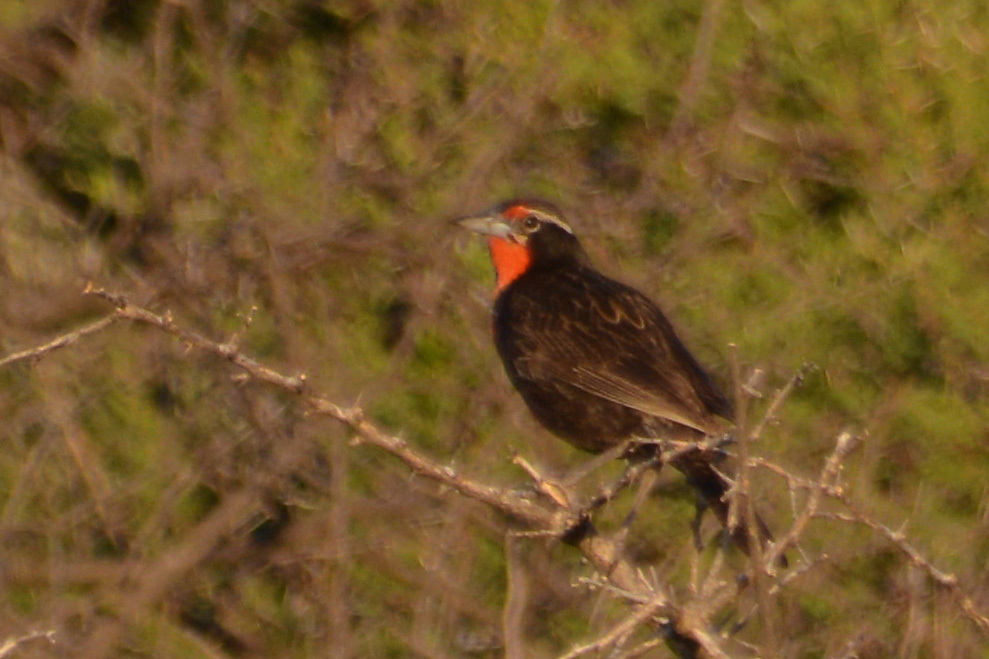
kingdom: Animalia
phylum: Chordata
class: Aves
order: Passeriformes
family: Icteridae
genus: Sturnella
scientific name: Sturnella loyca
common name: Long-tailed meadowlark
